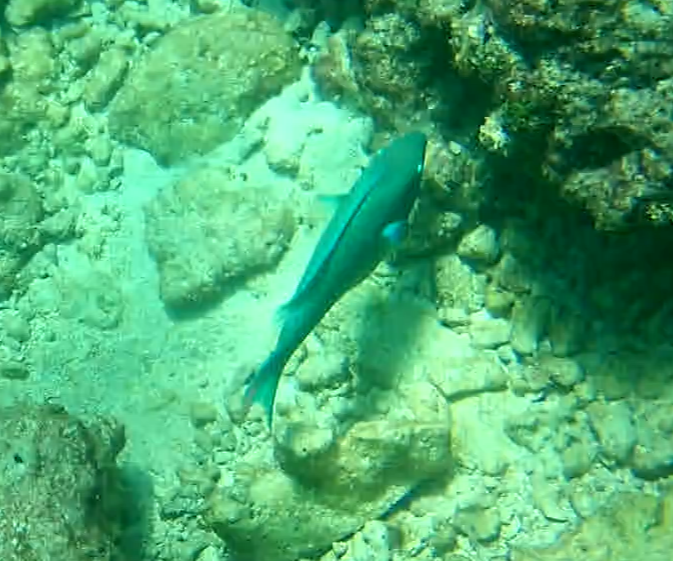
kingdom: Animalia
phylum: Chordata
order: Perciformes
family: Scaridae
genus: Scarus
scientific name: Scarus vetula
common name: Queen parrotfish
